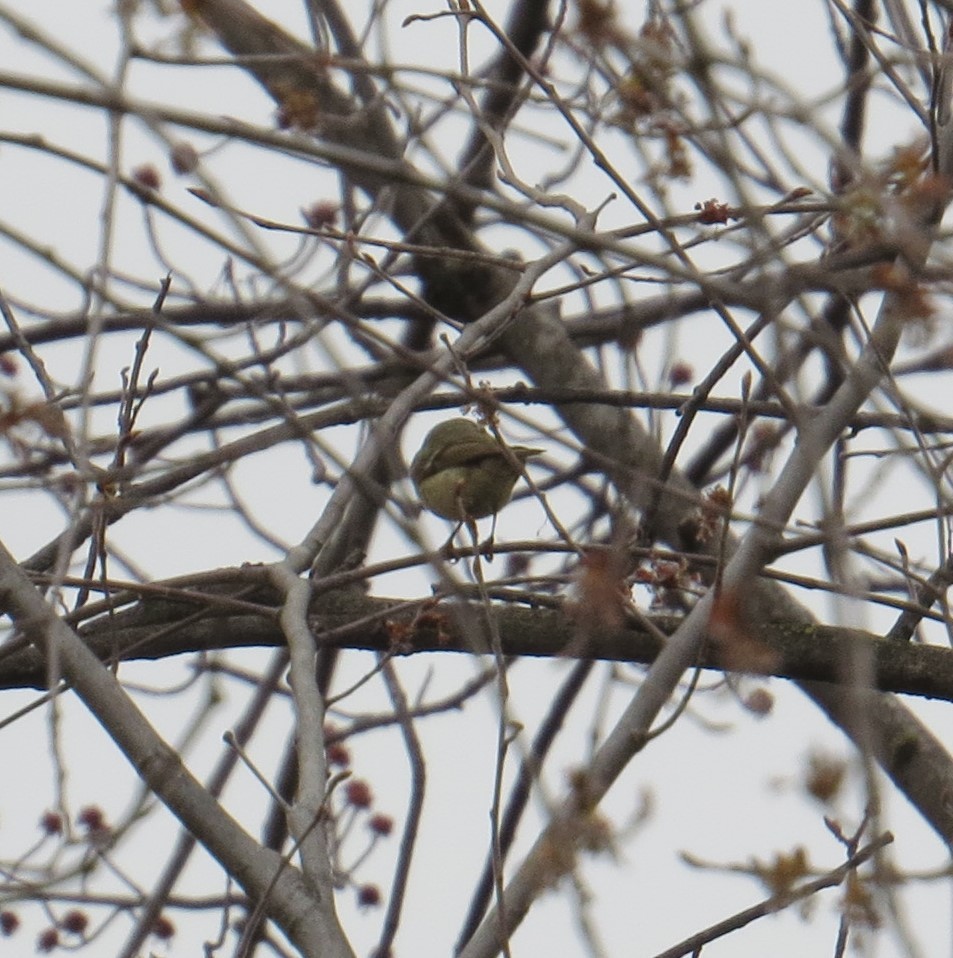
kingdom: Animalia
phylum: Chordata
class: Aves
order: Passeriformes
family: Regulidae
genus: Regulus
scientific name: Regulus calendula
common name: Ruby-crowned kinglet
